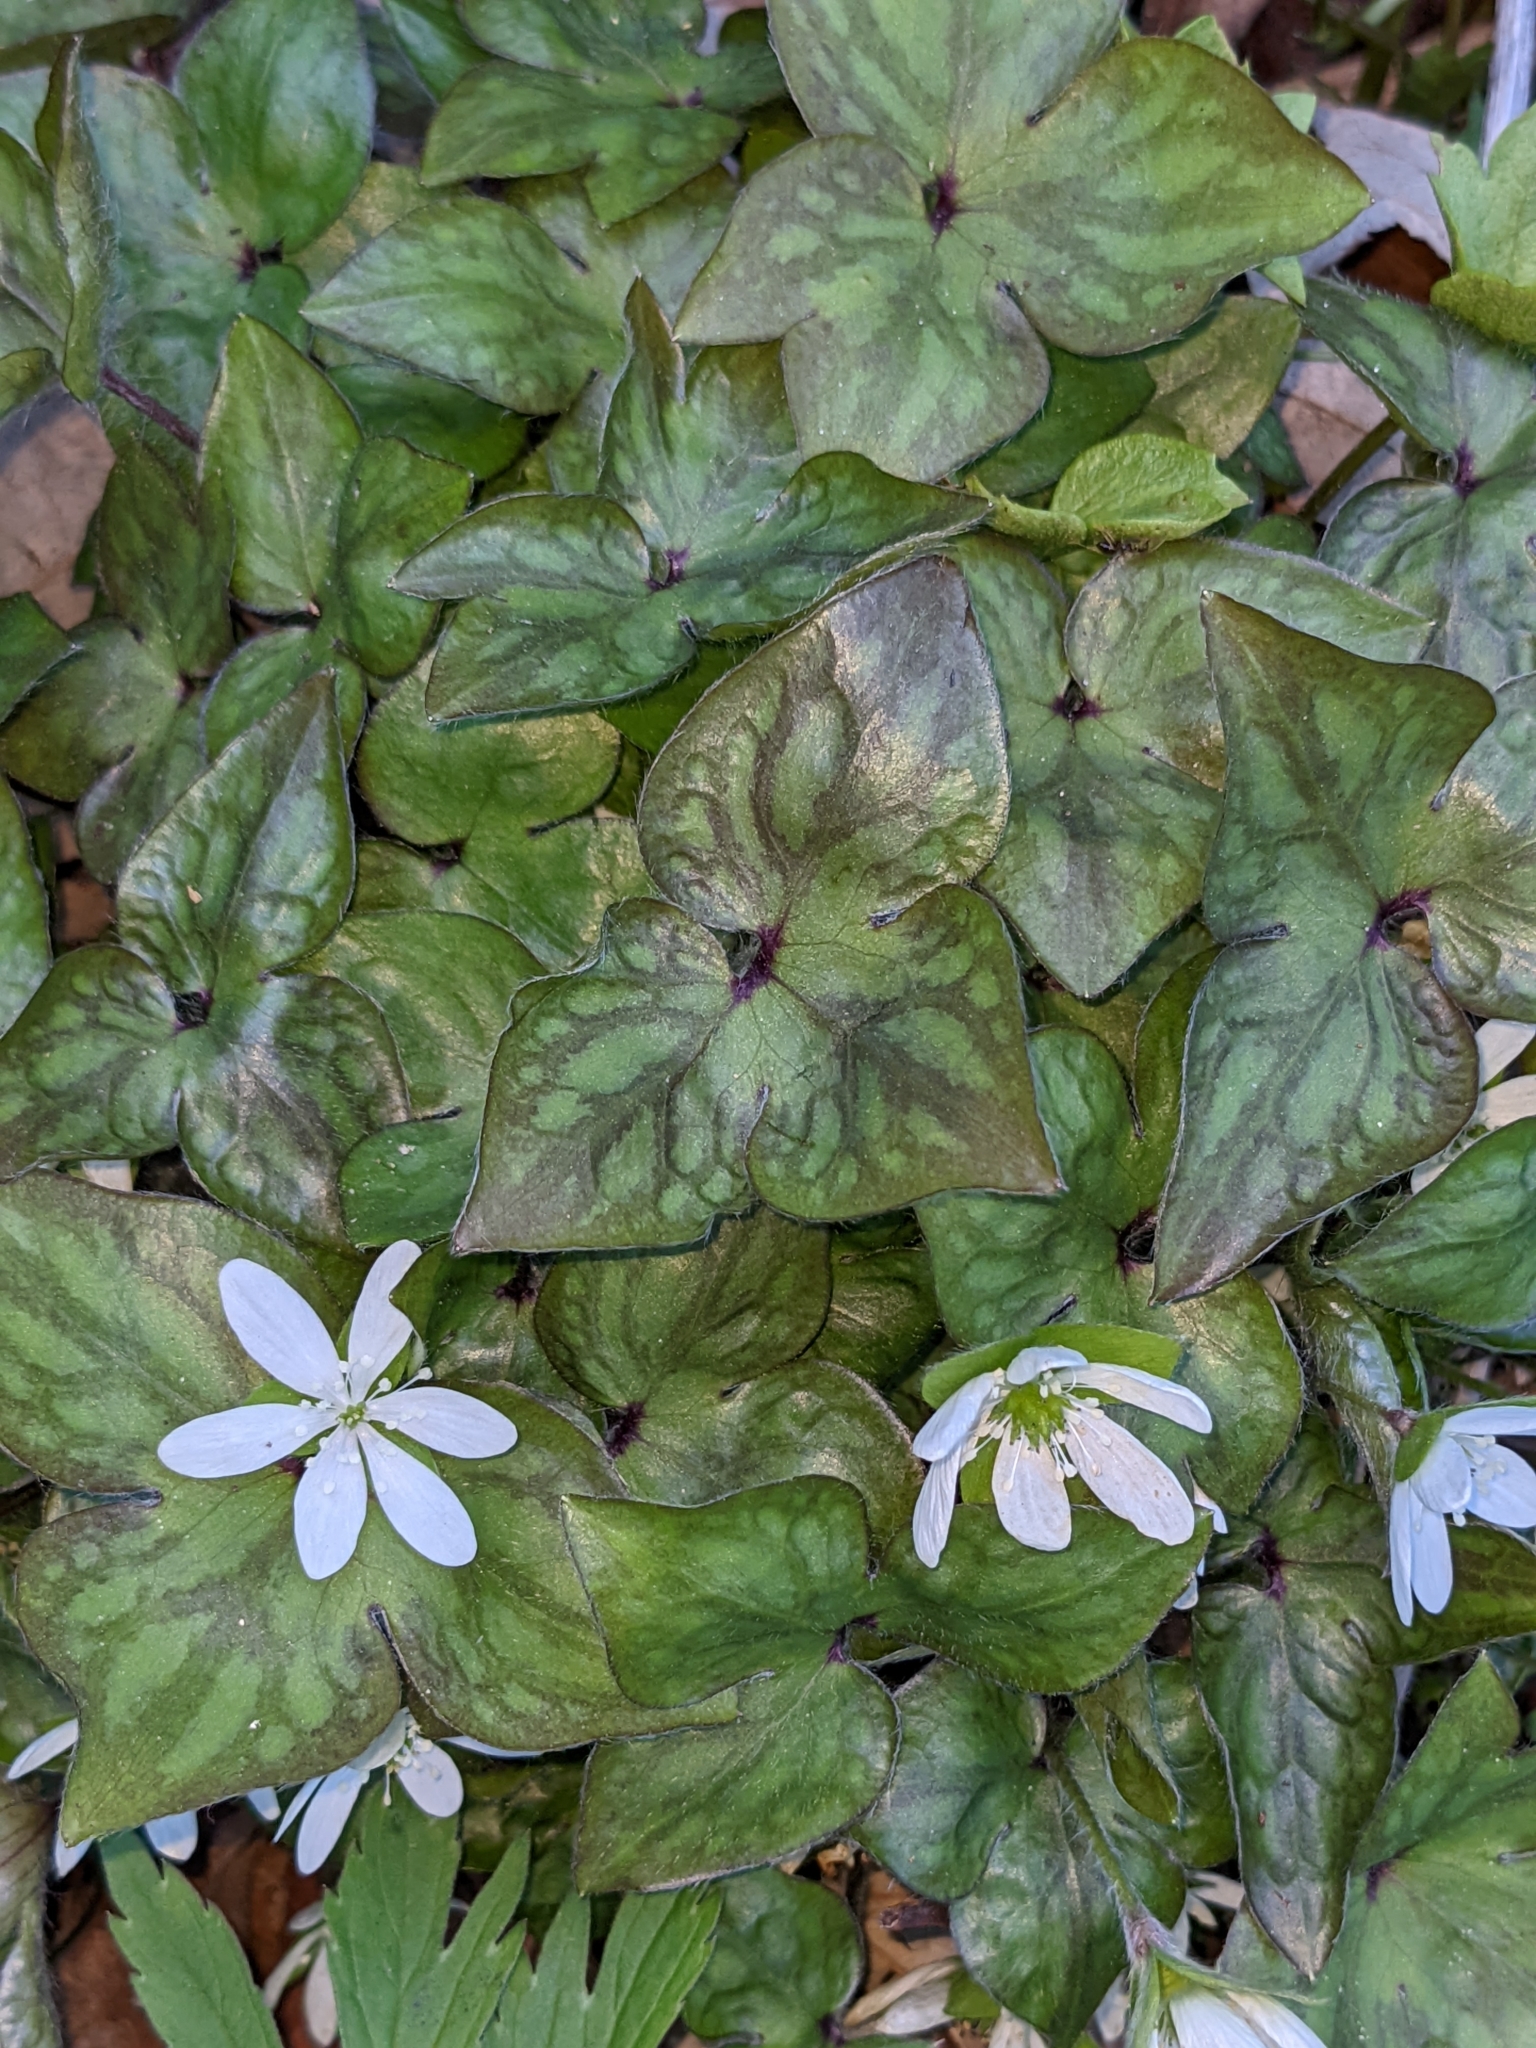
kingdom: Plantae
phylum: Tracheophyta
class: Magnoliopsida
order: Ranunculales
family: Ranunculaceae
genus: Hepatica
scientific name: Hepatica acutiloba
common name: Sharp-lobed hepatica
